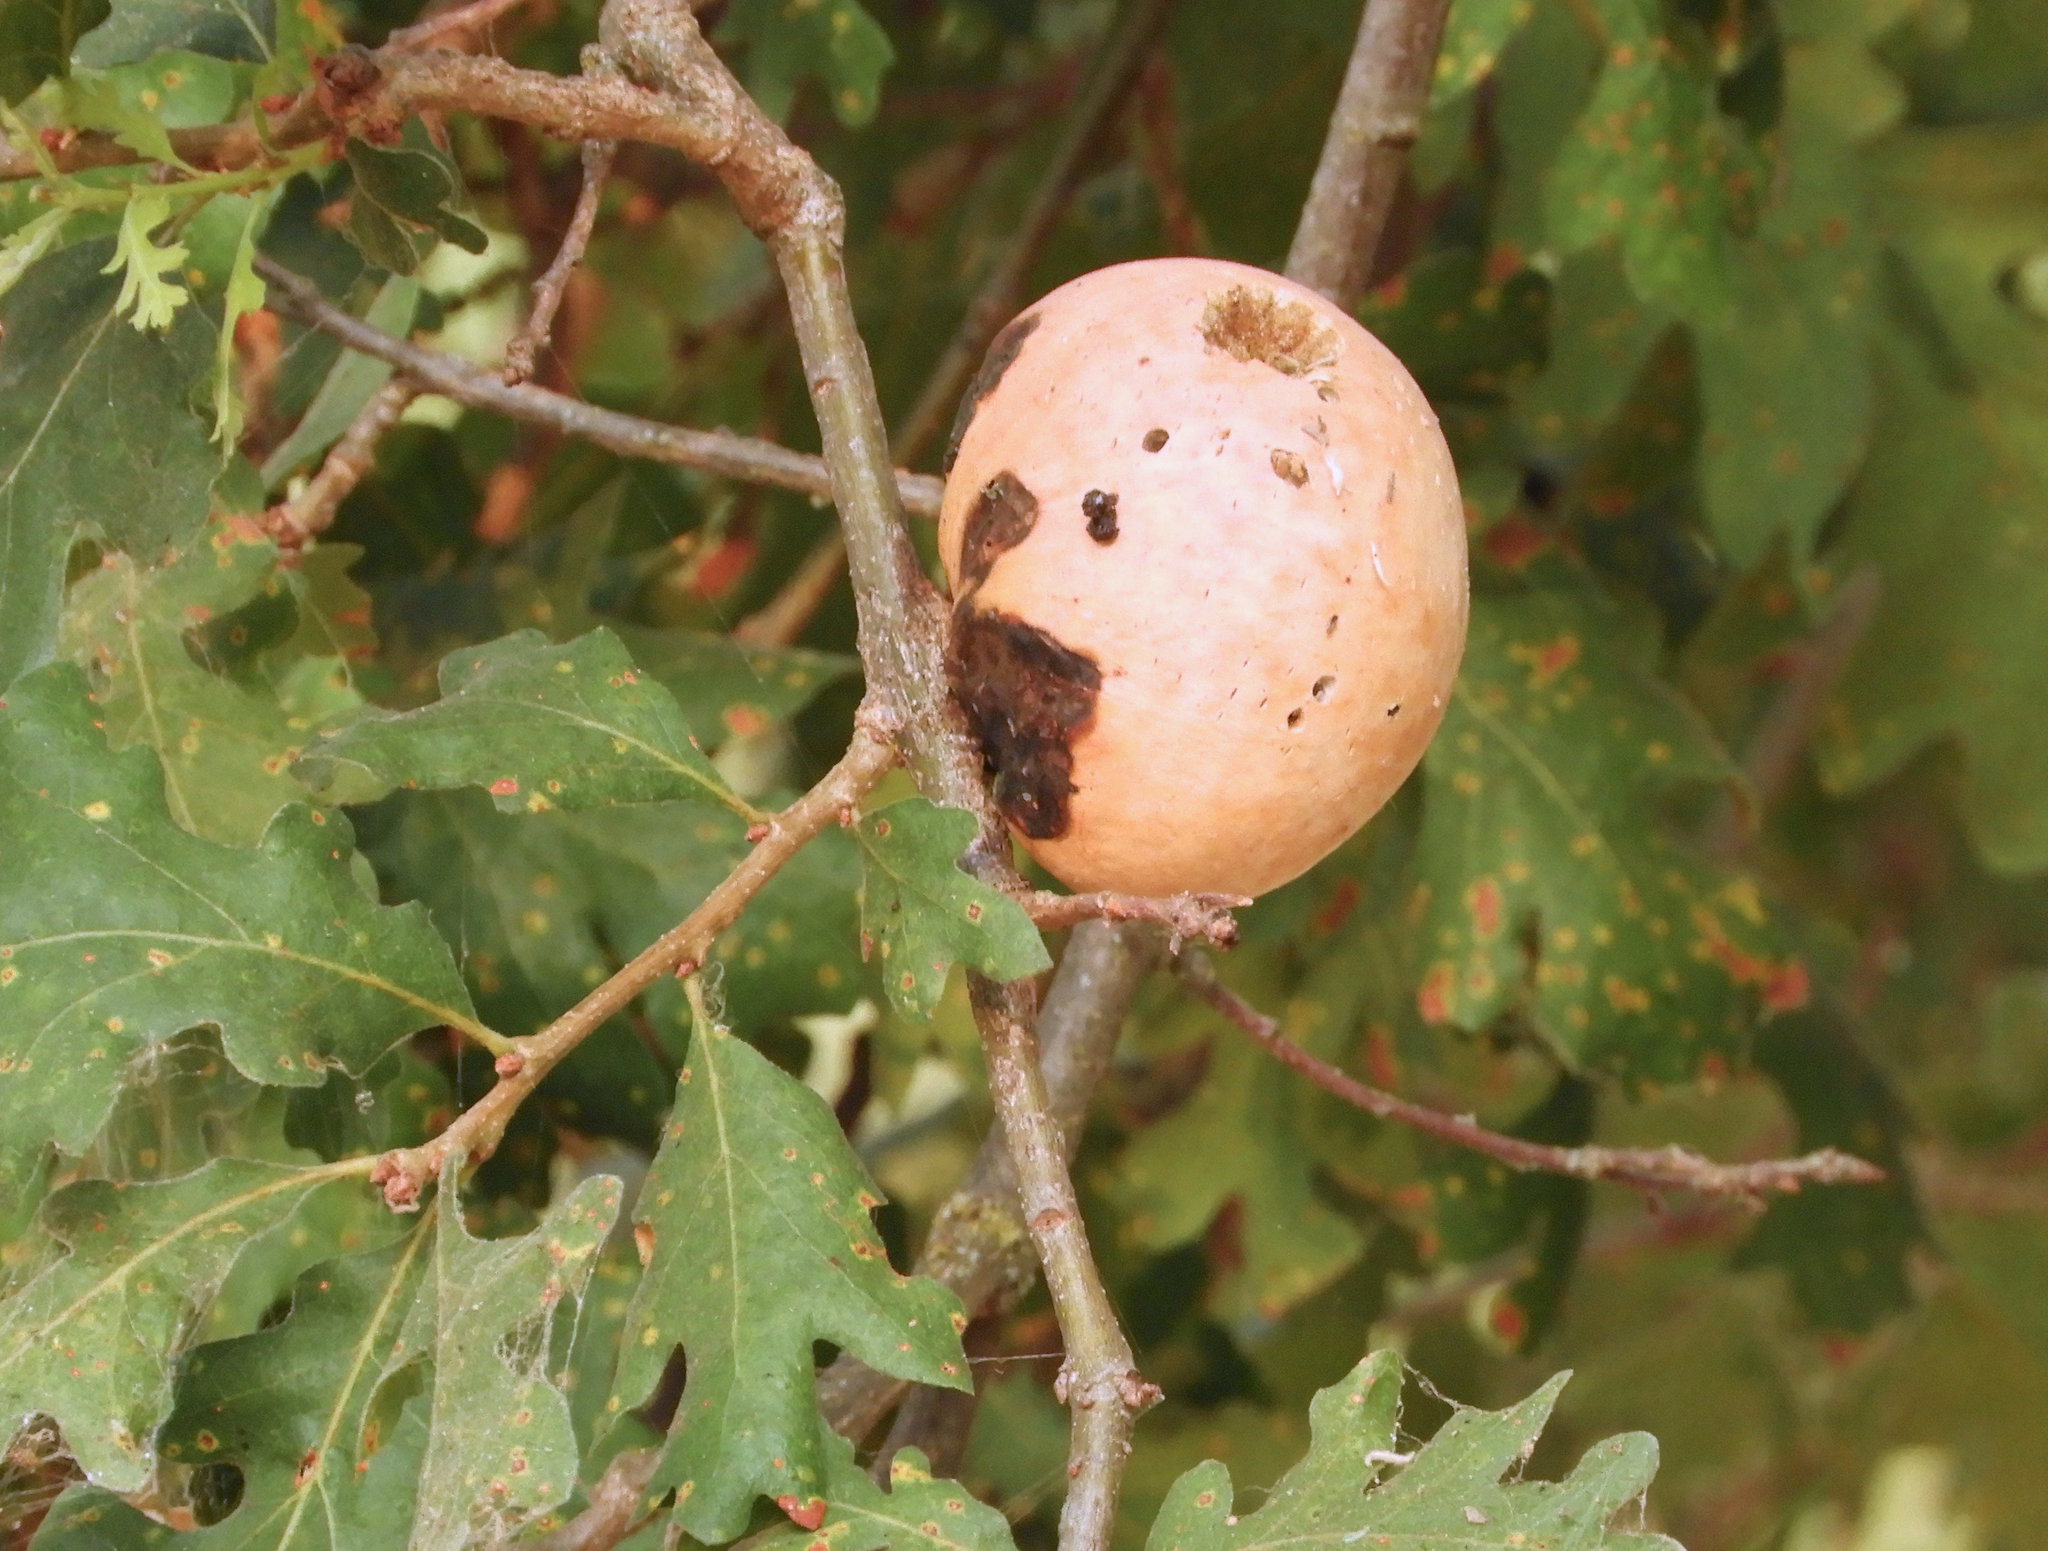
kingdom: Animalia
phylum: Arthropoda
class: Insecta
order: Hymenoptera
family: Cynipidae
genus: Andricus
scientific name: Andricus quercuscalifornicus
